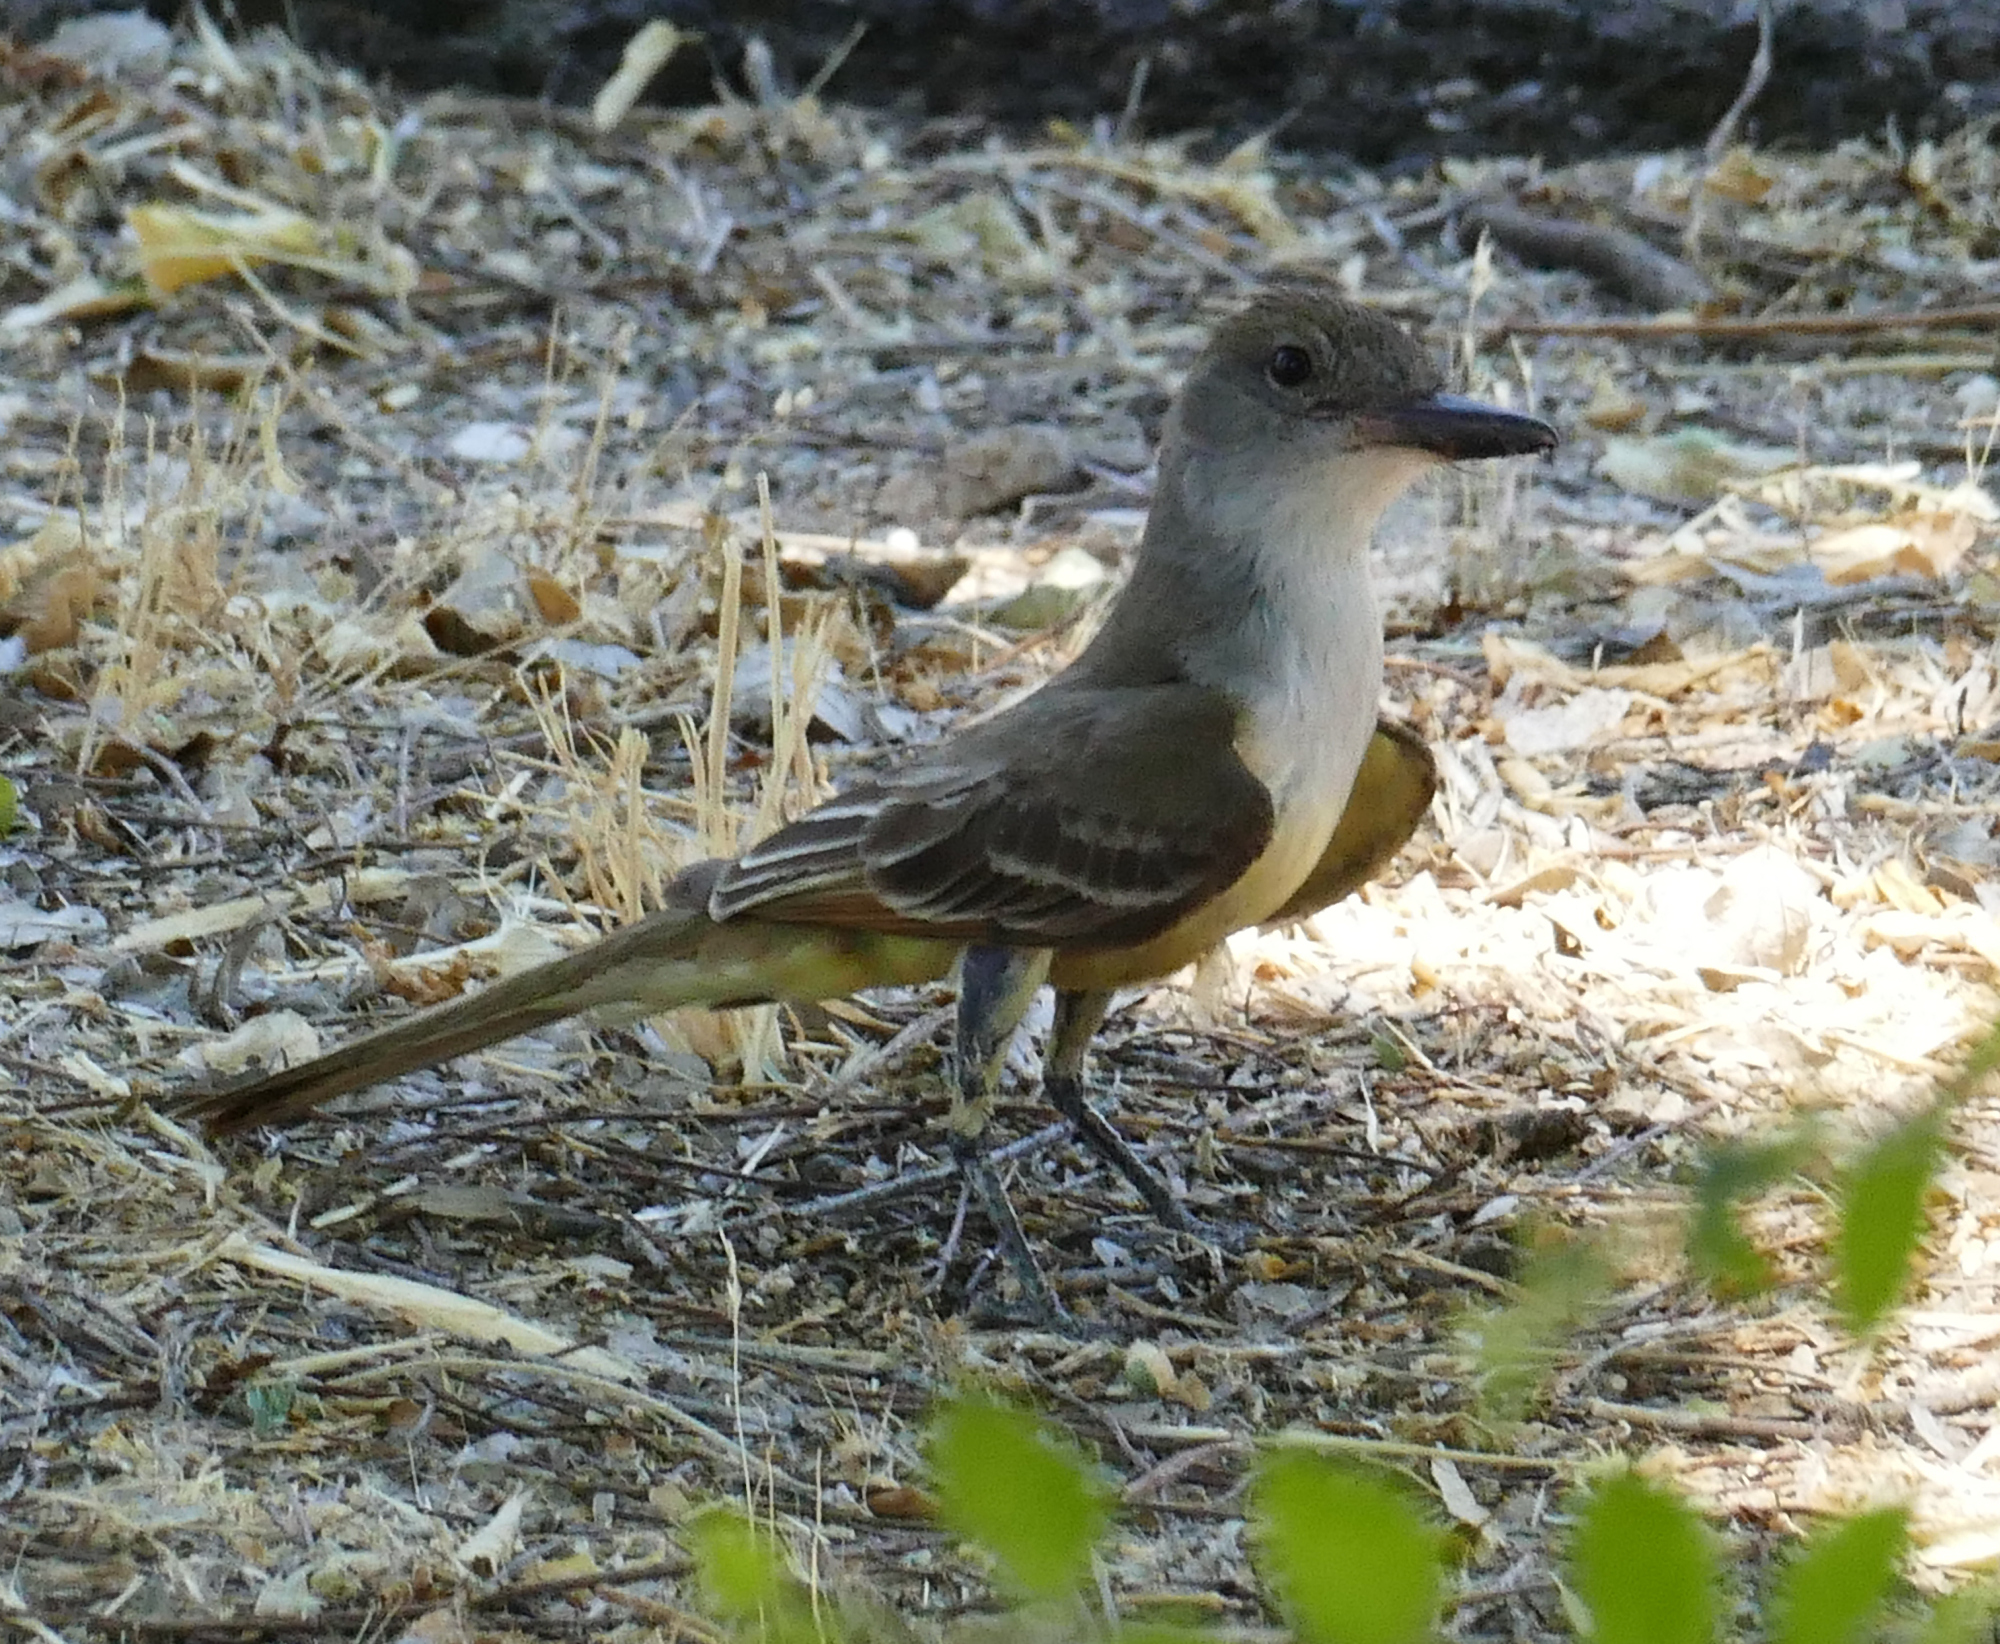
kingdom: Animalia
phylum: Chordata
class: Aves
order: Passeriformes
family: Tyrannidae
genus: Myiarchus
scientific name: Myiarchus tyrannulus
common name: Brown-crested flycatcher
